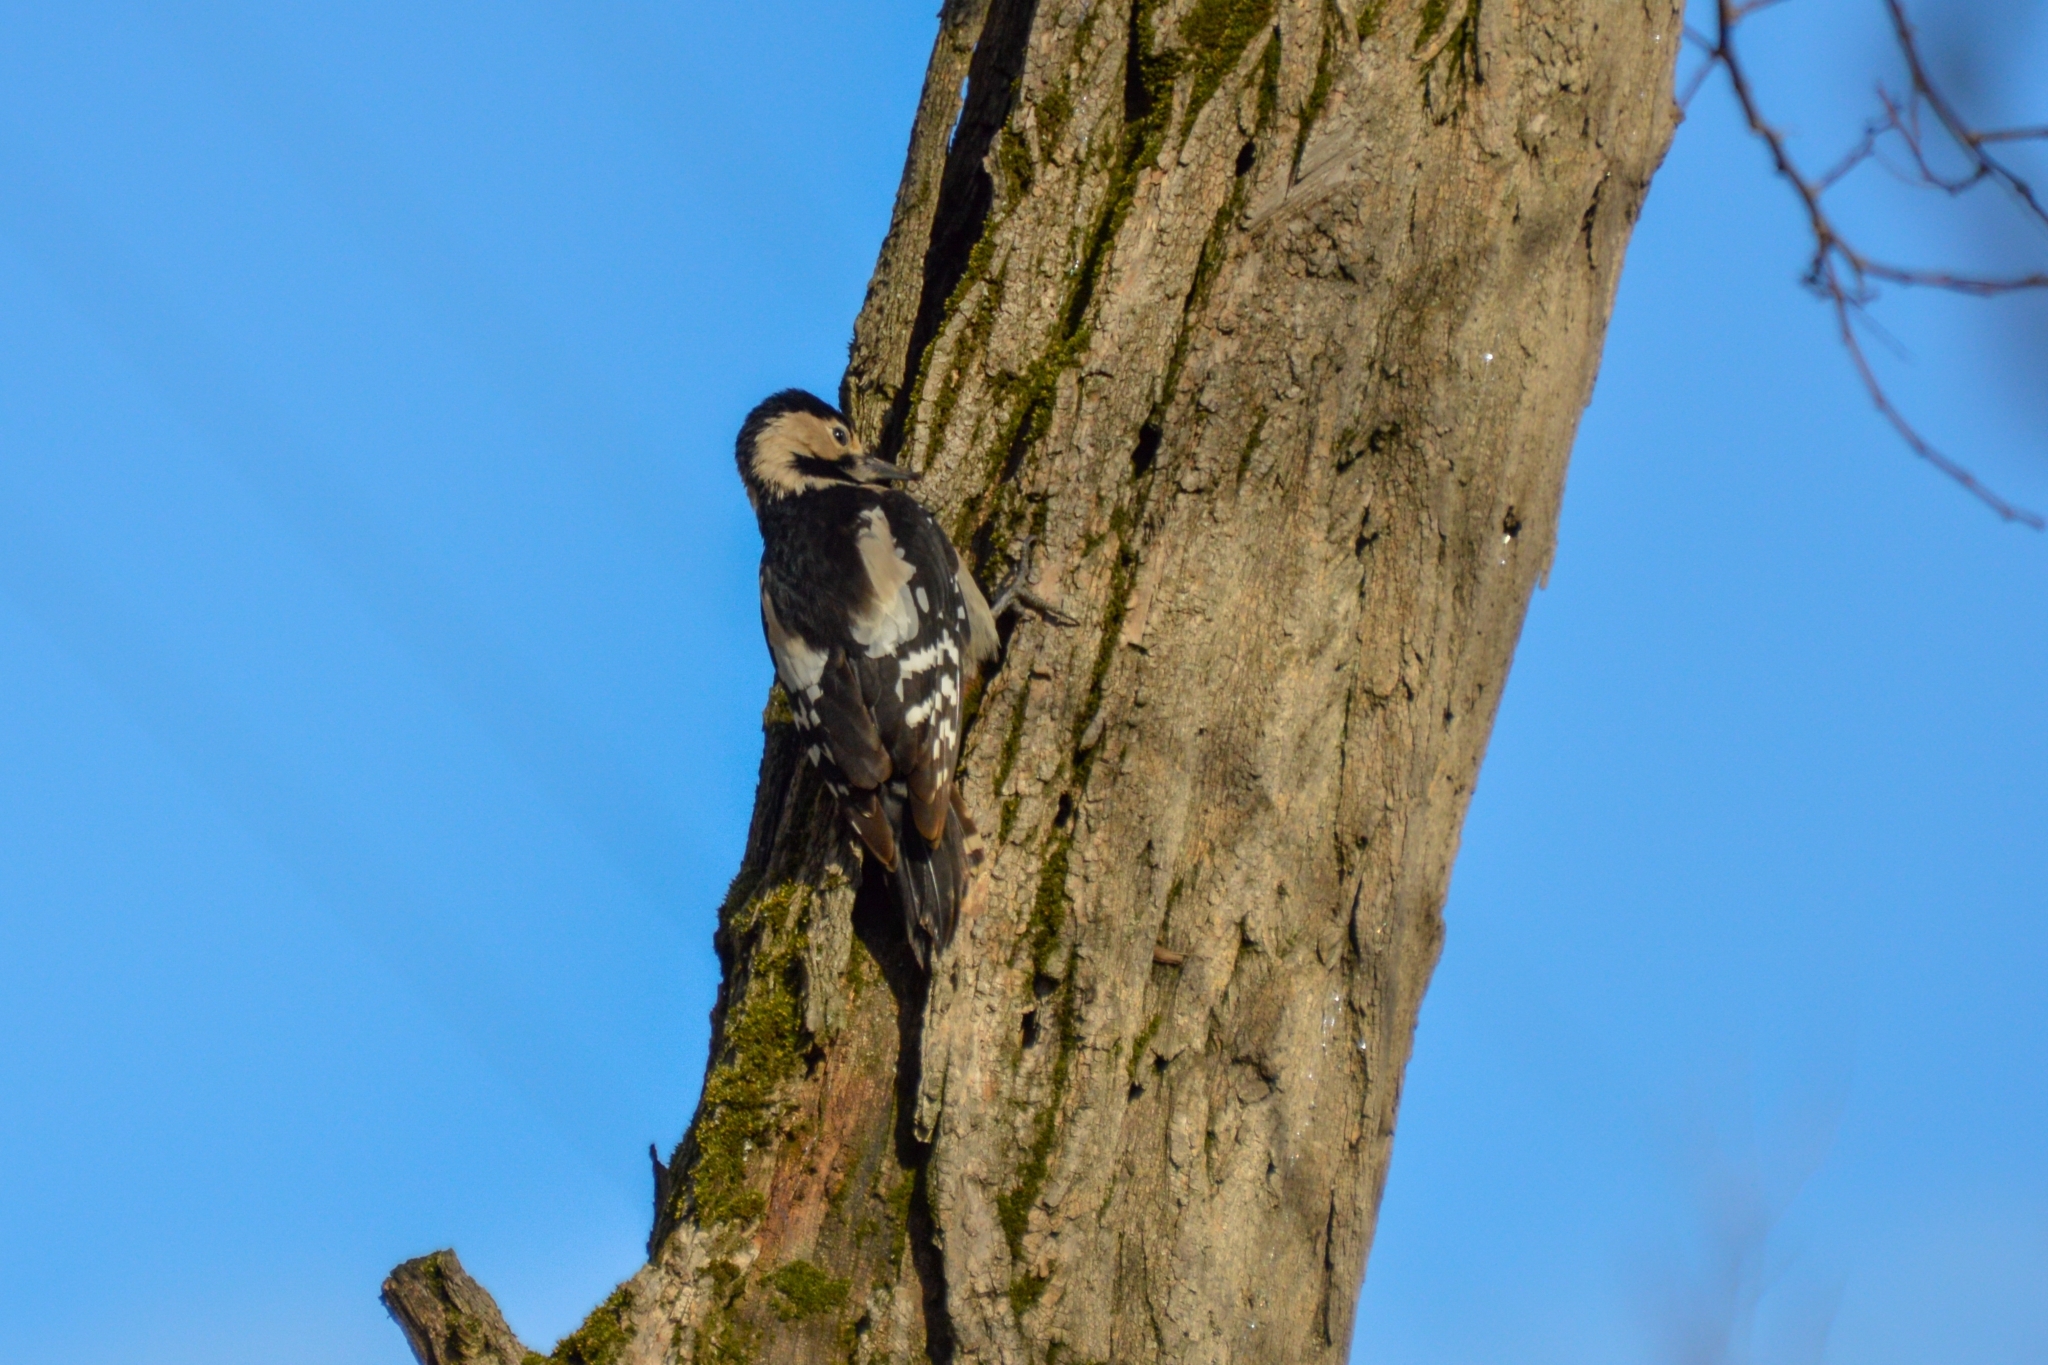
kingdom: Animalia
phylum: Chordata
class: Aves
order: Piciformes
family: Picidae
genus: Dendrocopos
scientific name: Dendrocopos syriacus
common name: Syrian woodpecker
